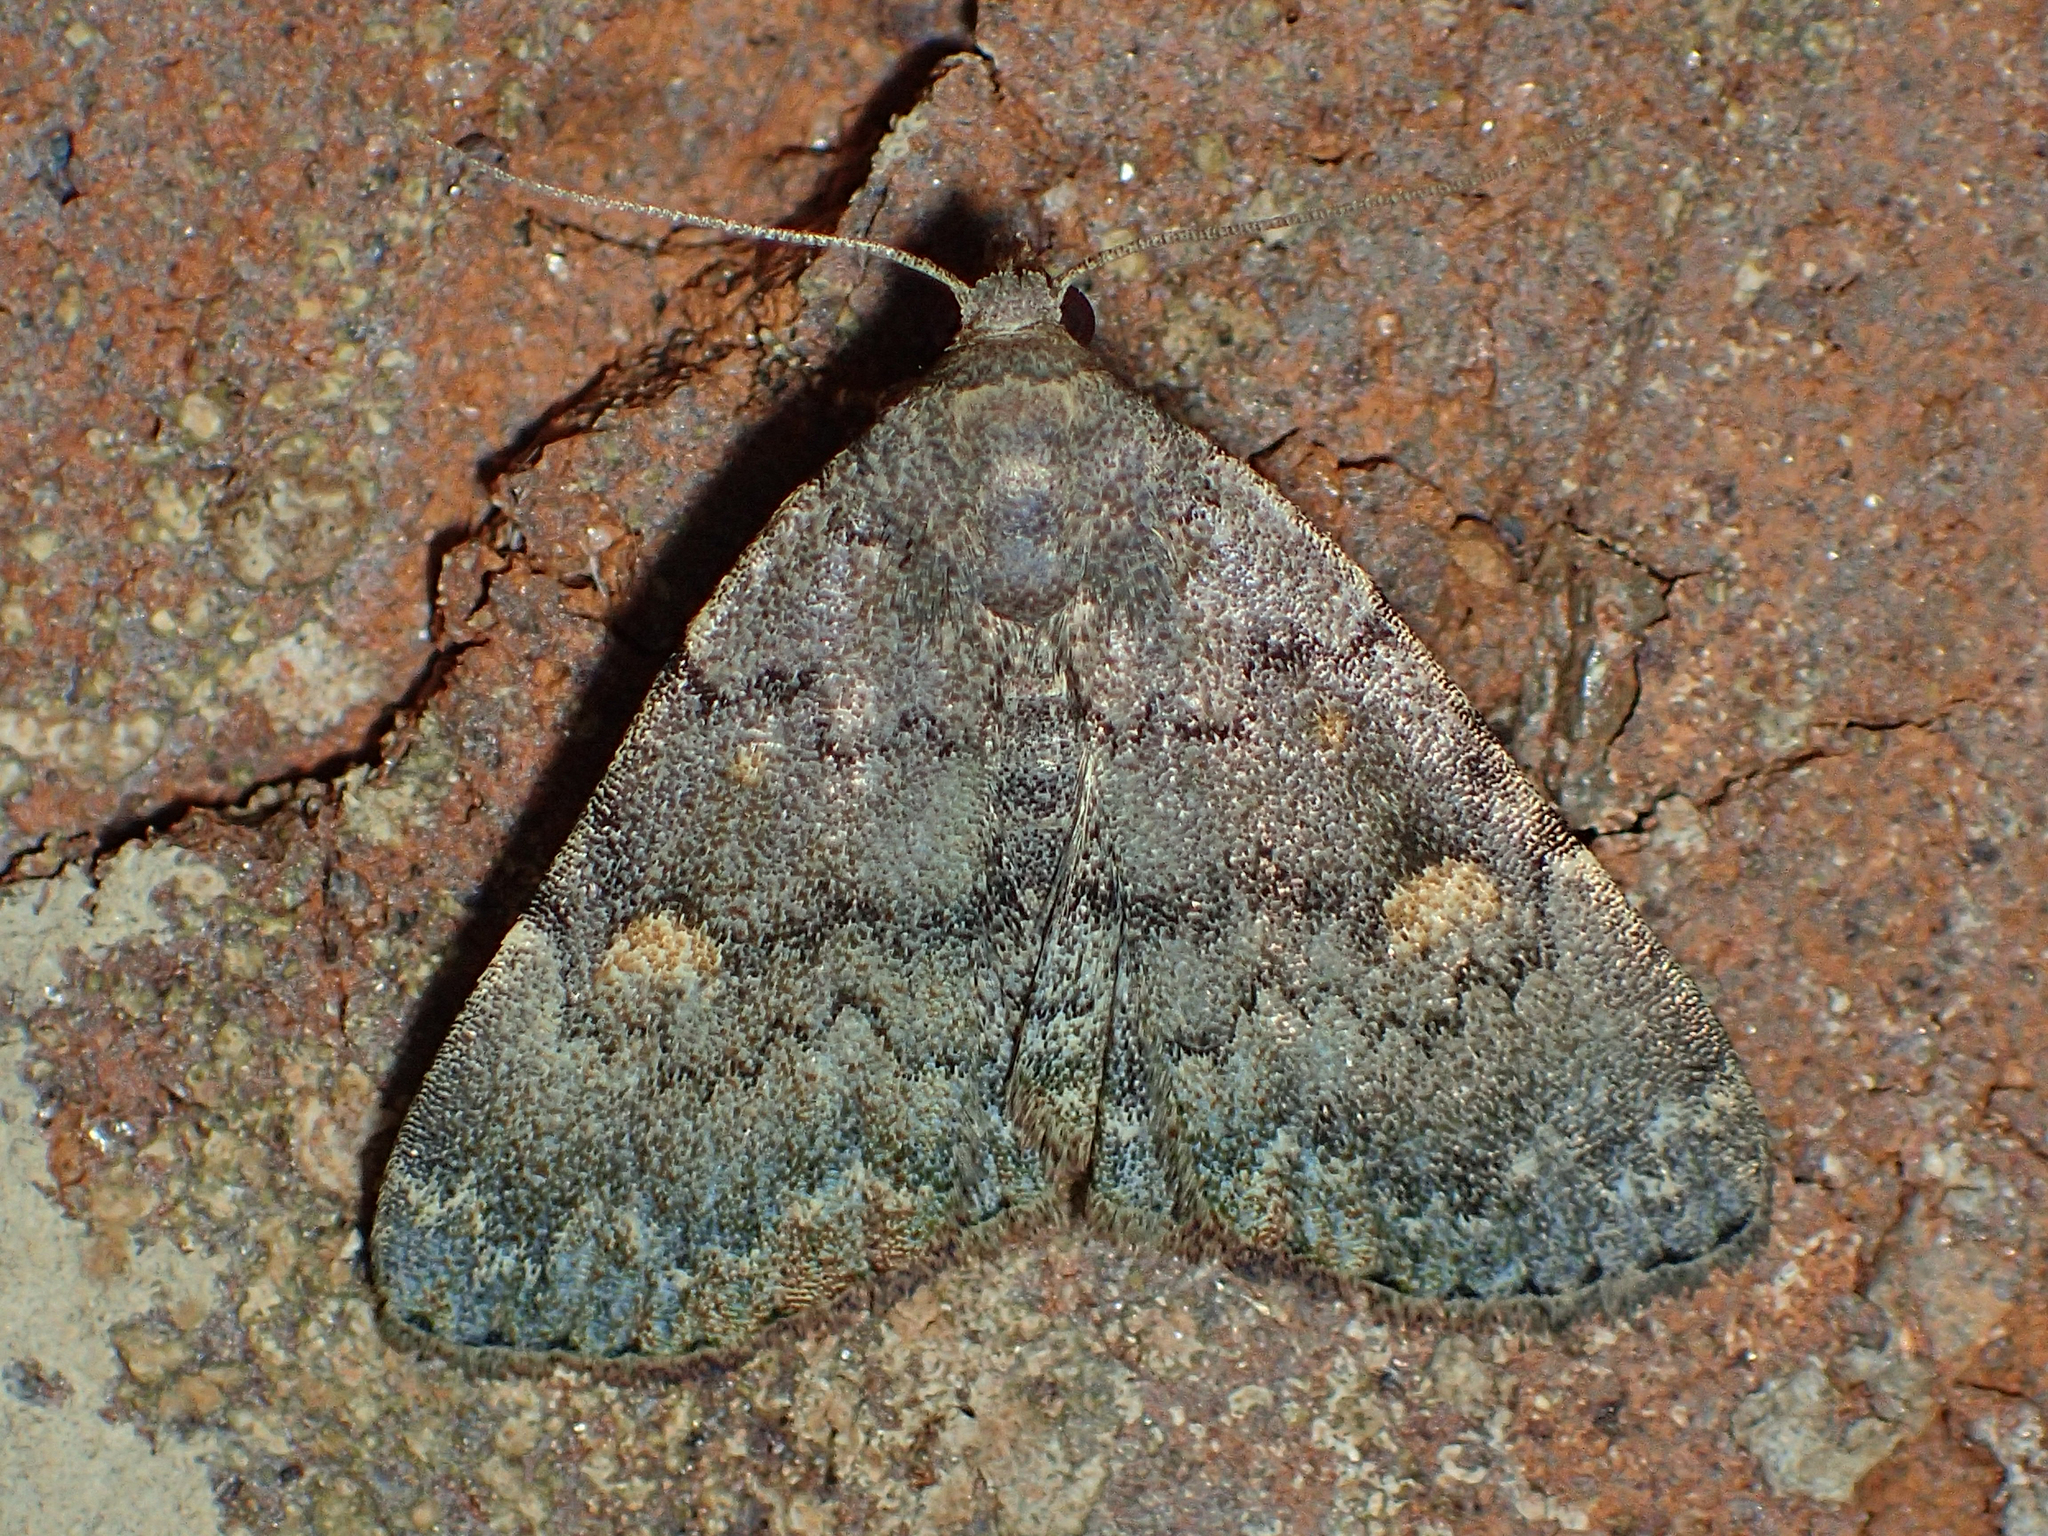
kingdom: Animalia
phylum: Arthropoda
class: Insecta
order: Lepidoptera
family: Erebidae
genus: Idia
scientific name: Idia aemula
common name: Common idia moth
